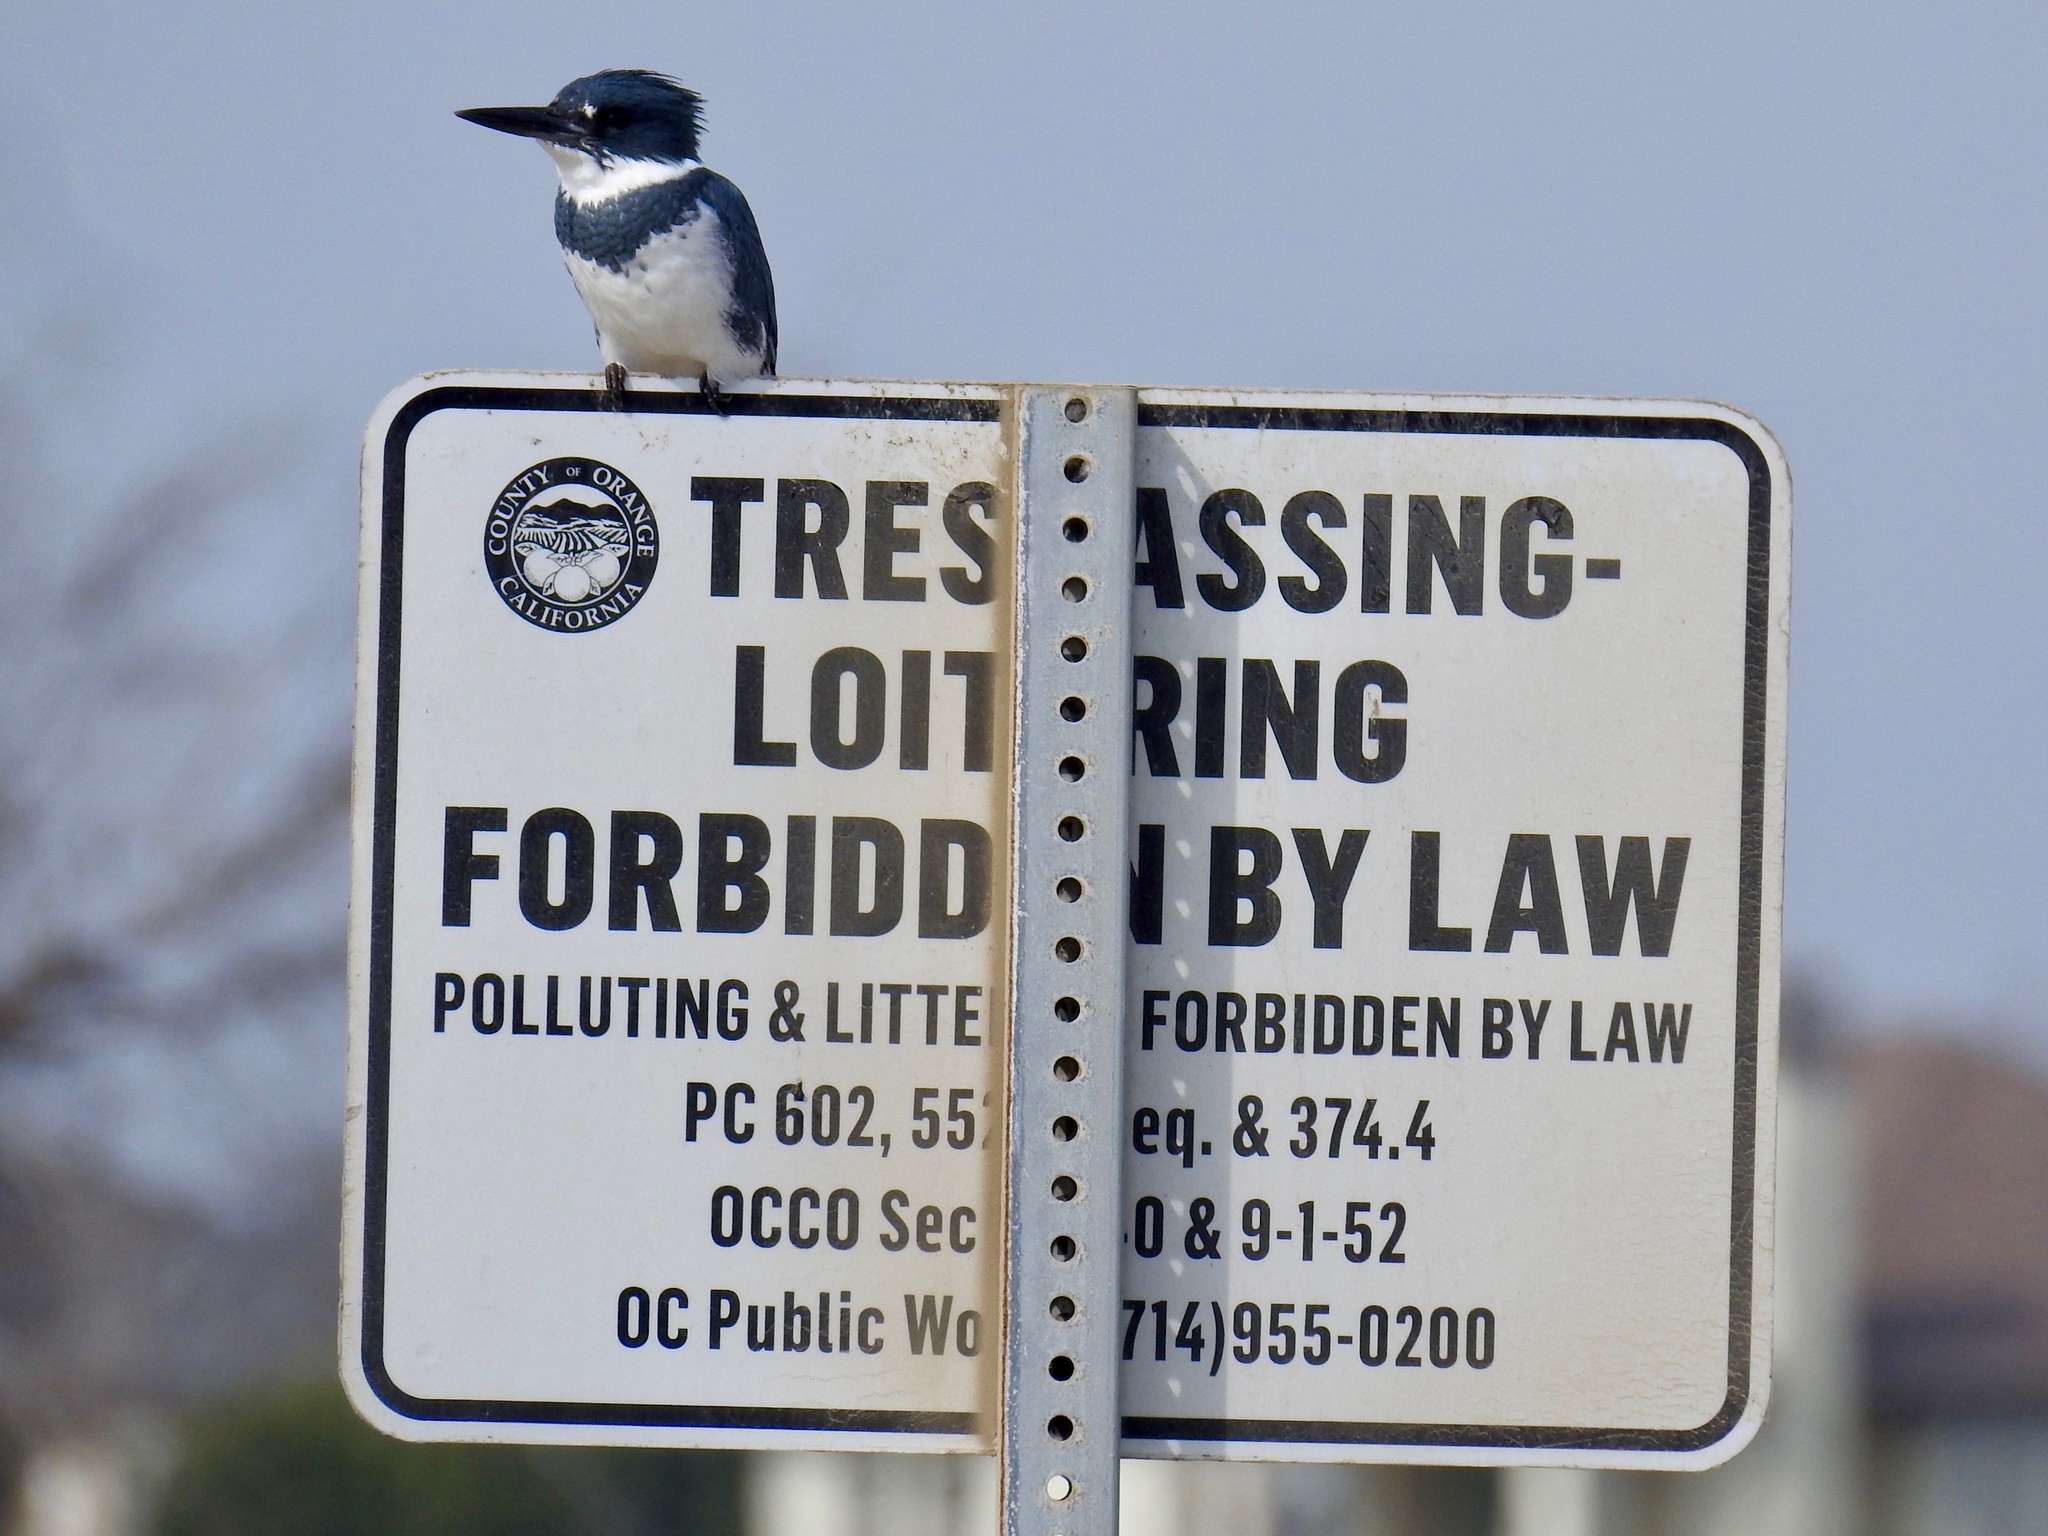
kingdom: Animalia
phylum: Chordata
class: Aves
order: Coraciiformes
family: Alcedinidae
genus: Megaceryle
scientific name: Megaceryle alcyon
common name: Belted kingfisher
